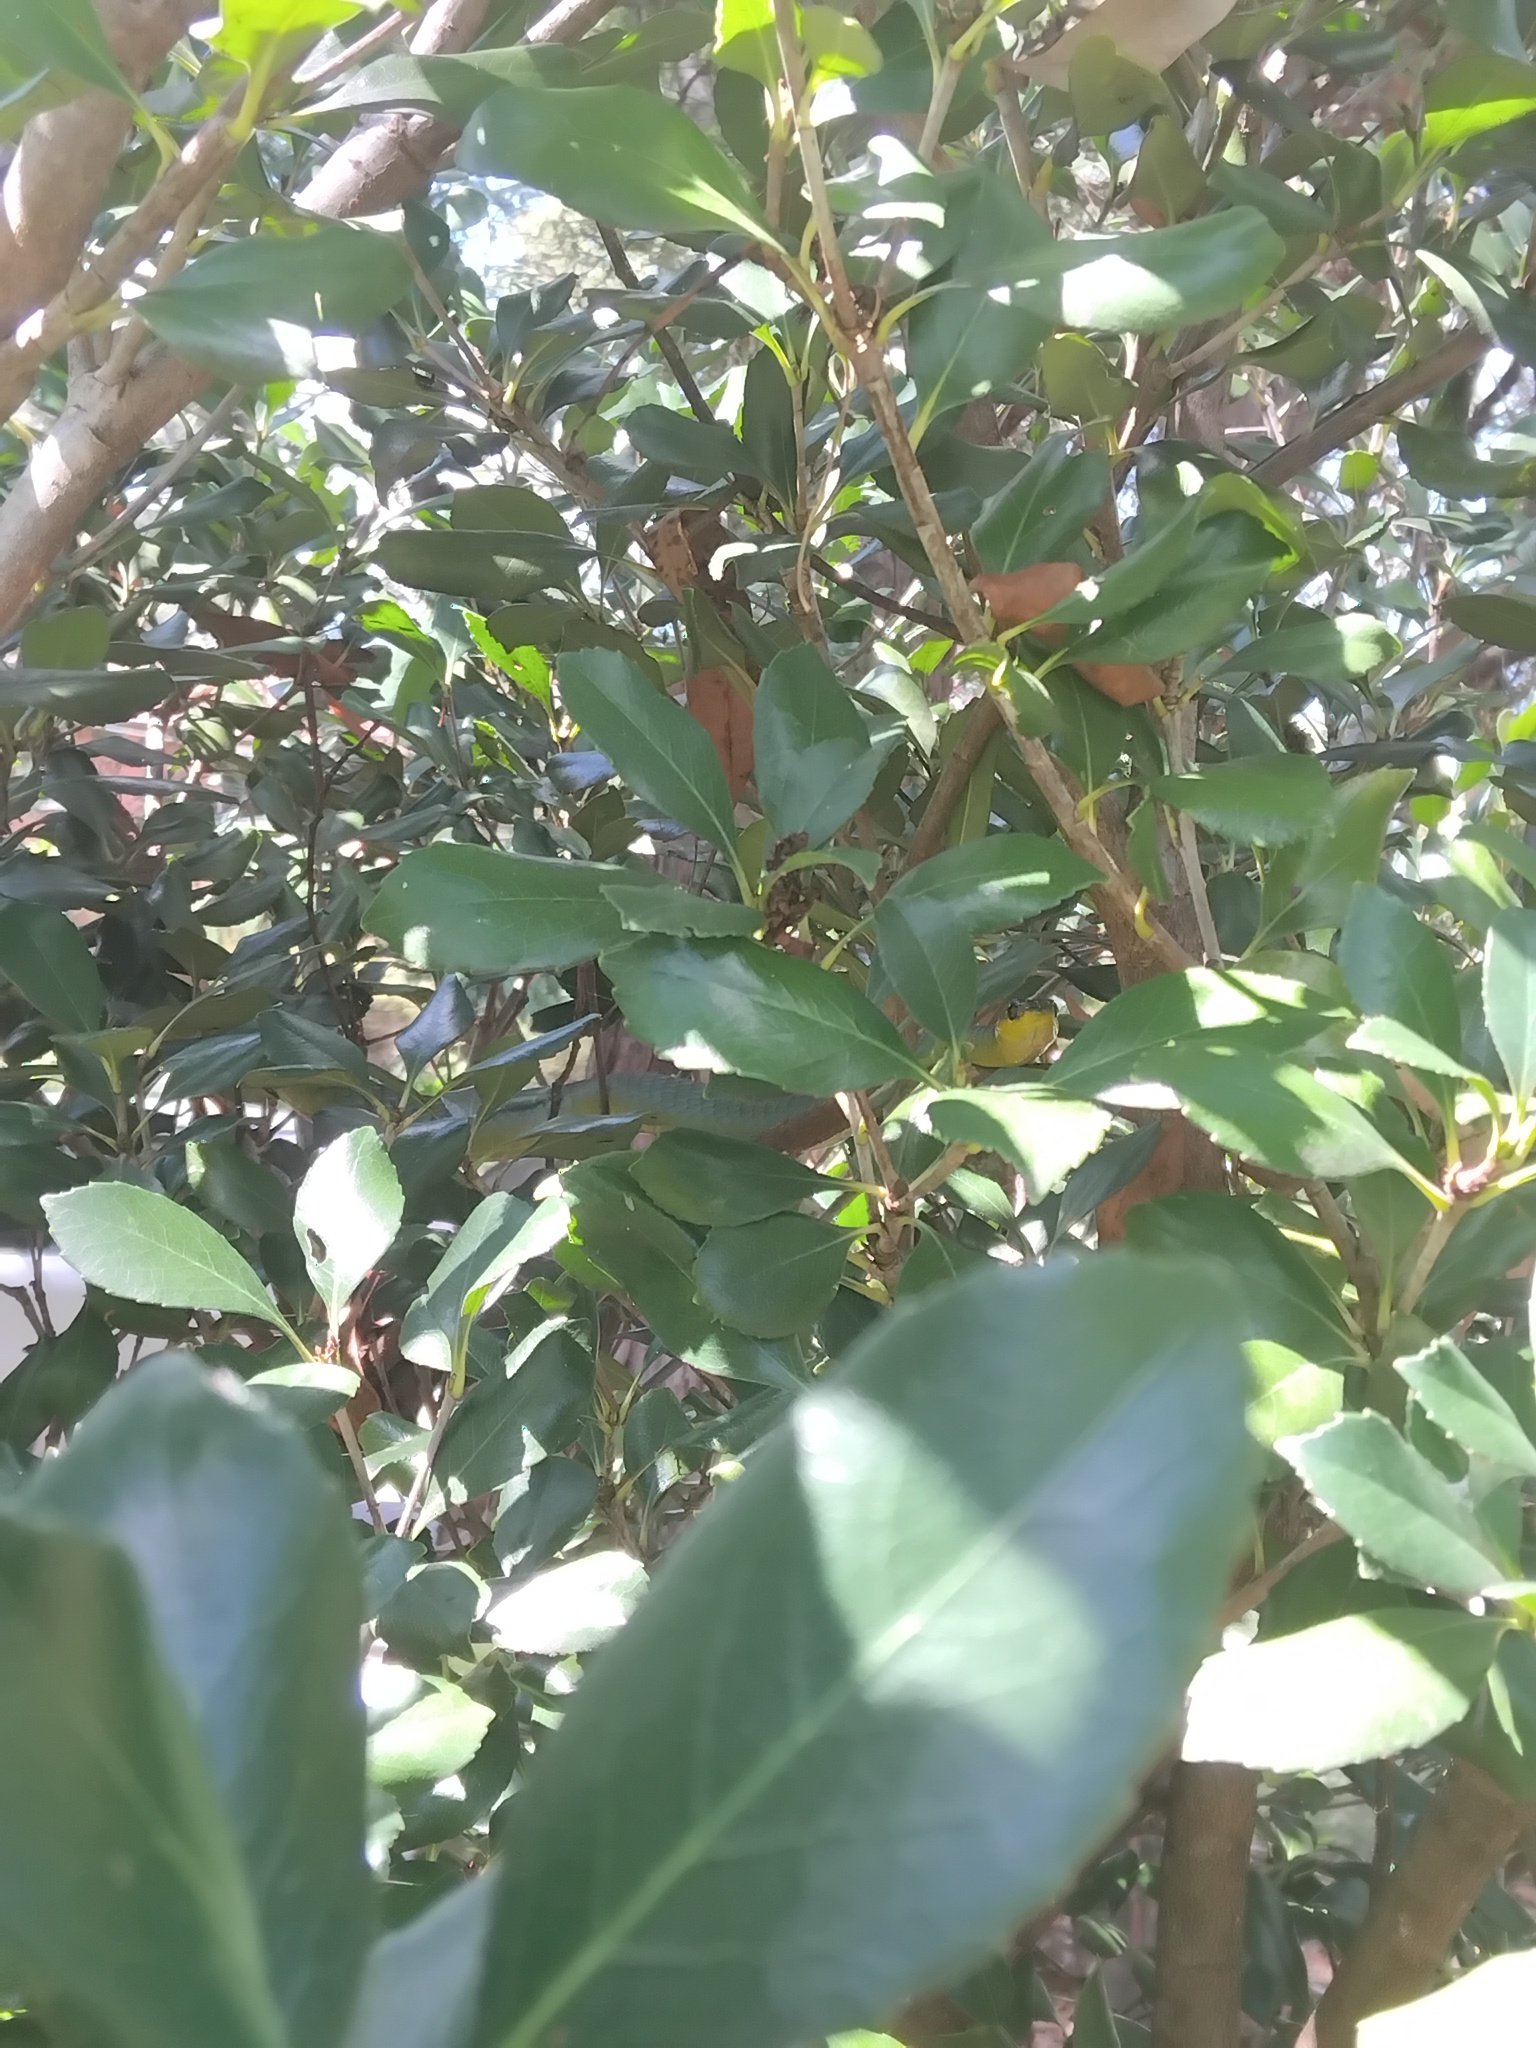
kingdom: Animalia
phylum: Chordata
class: Squamata
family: Colubridae
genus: Dendrelaphis
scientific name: Dendrelaphis punctulatus
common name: Common tree snake
